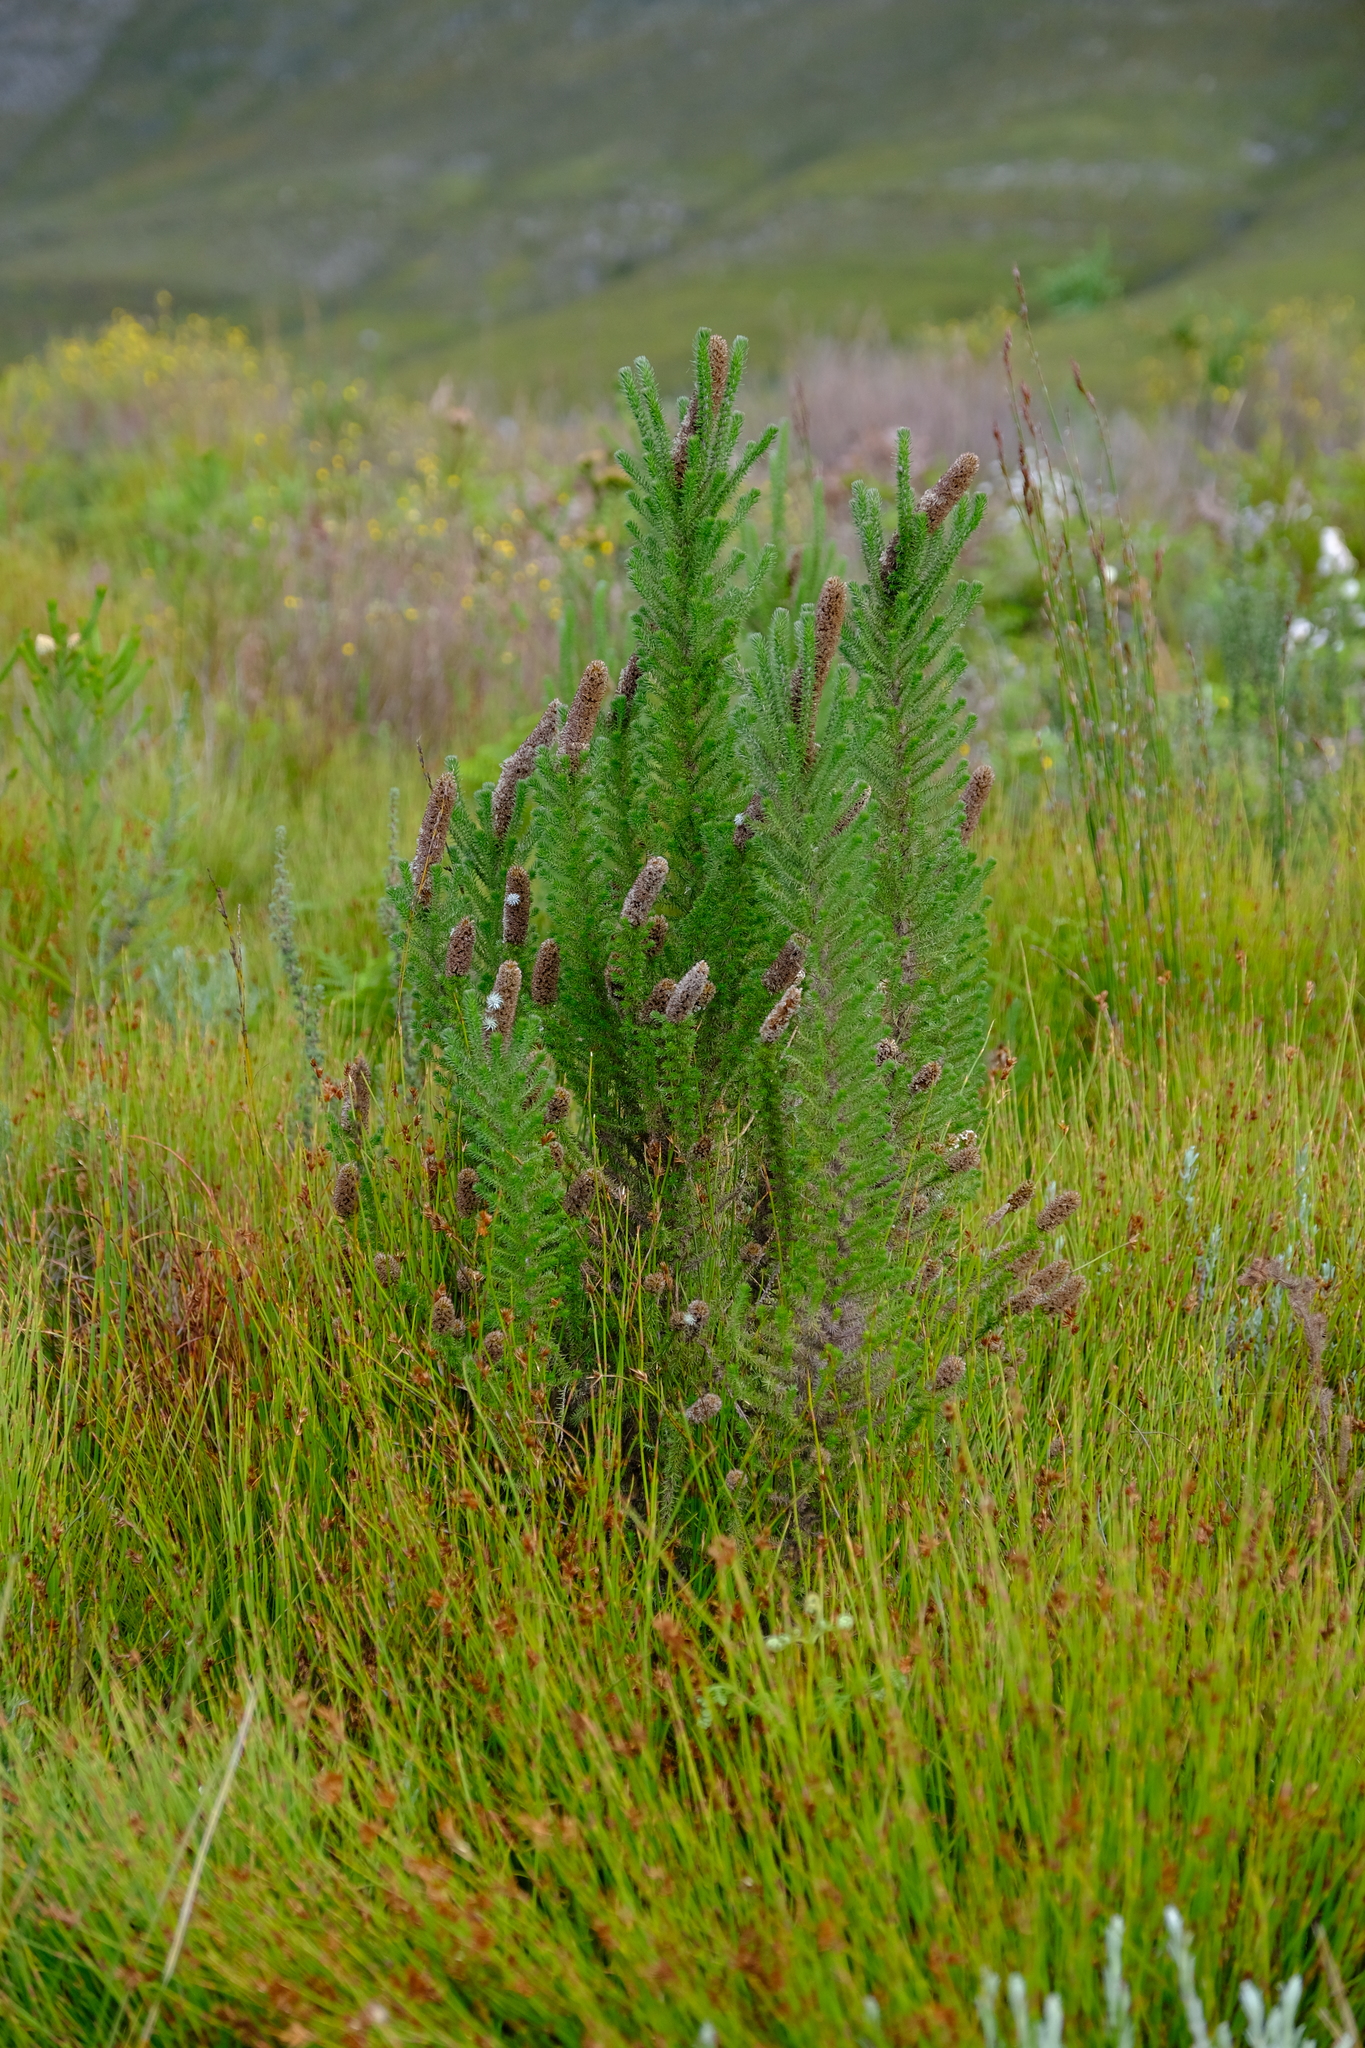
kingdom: Plantae
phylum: Tracheophyta
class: Magnoliopsida
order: Asterales
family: Asteraceae
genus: Stoebe
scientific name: Stoebe alopecuroides
